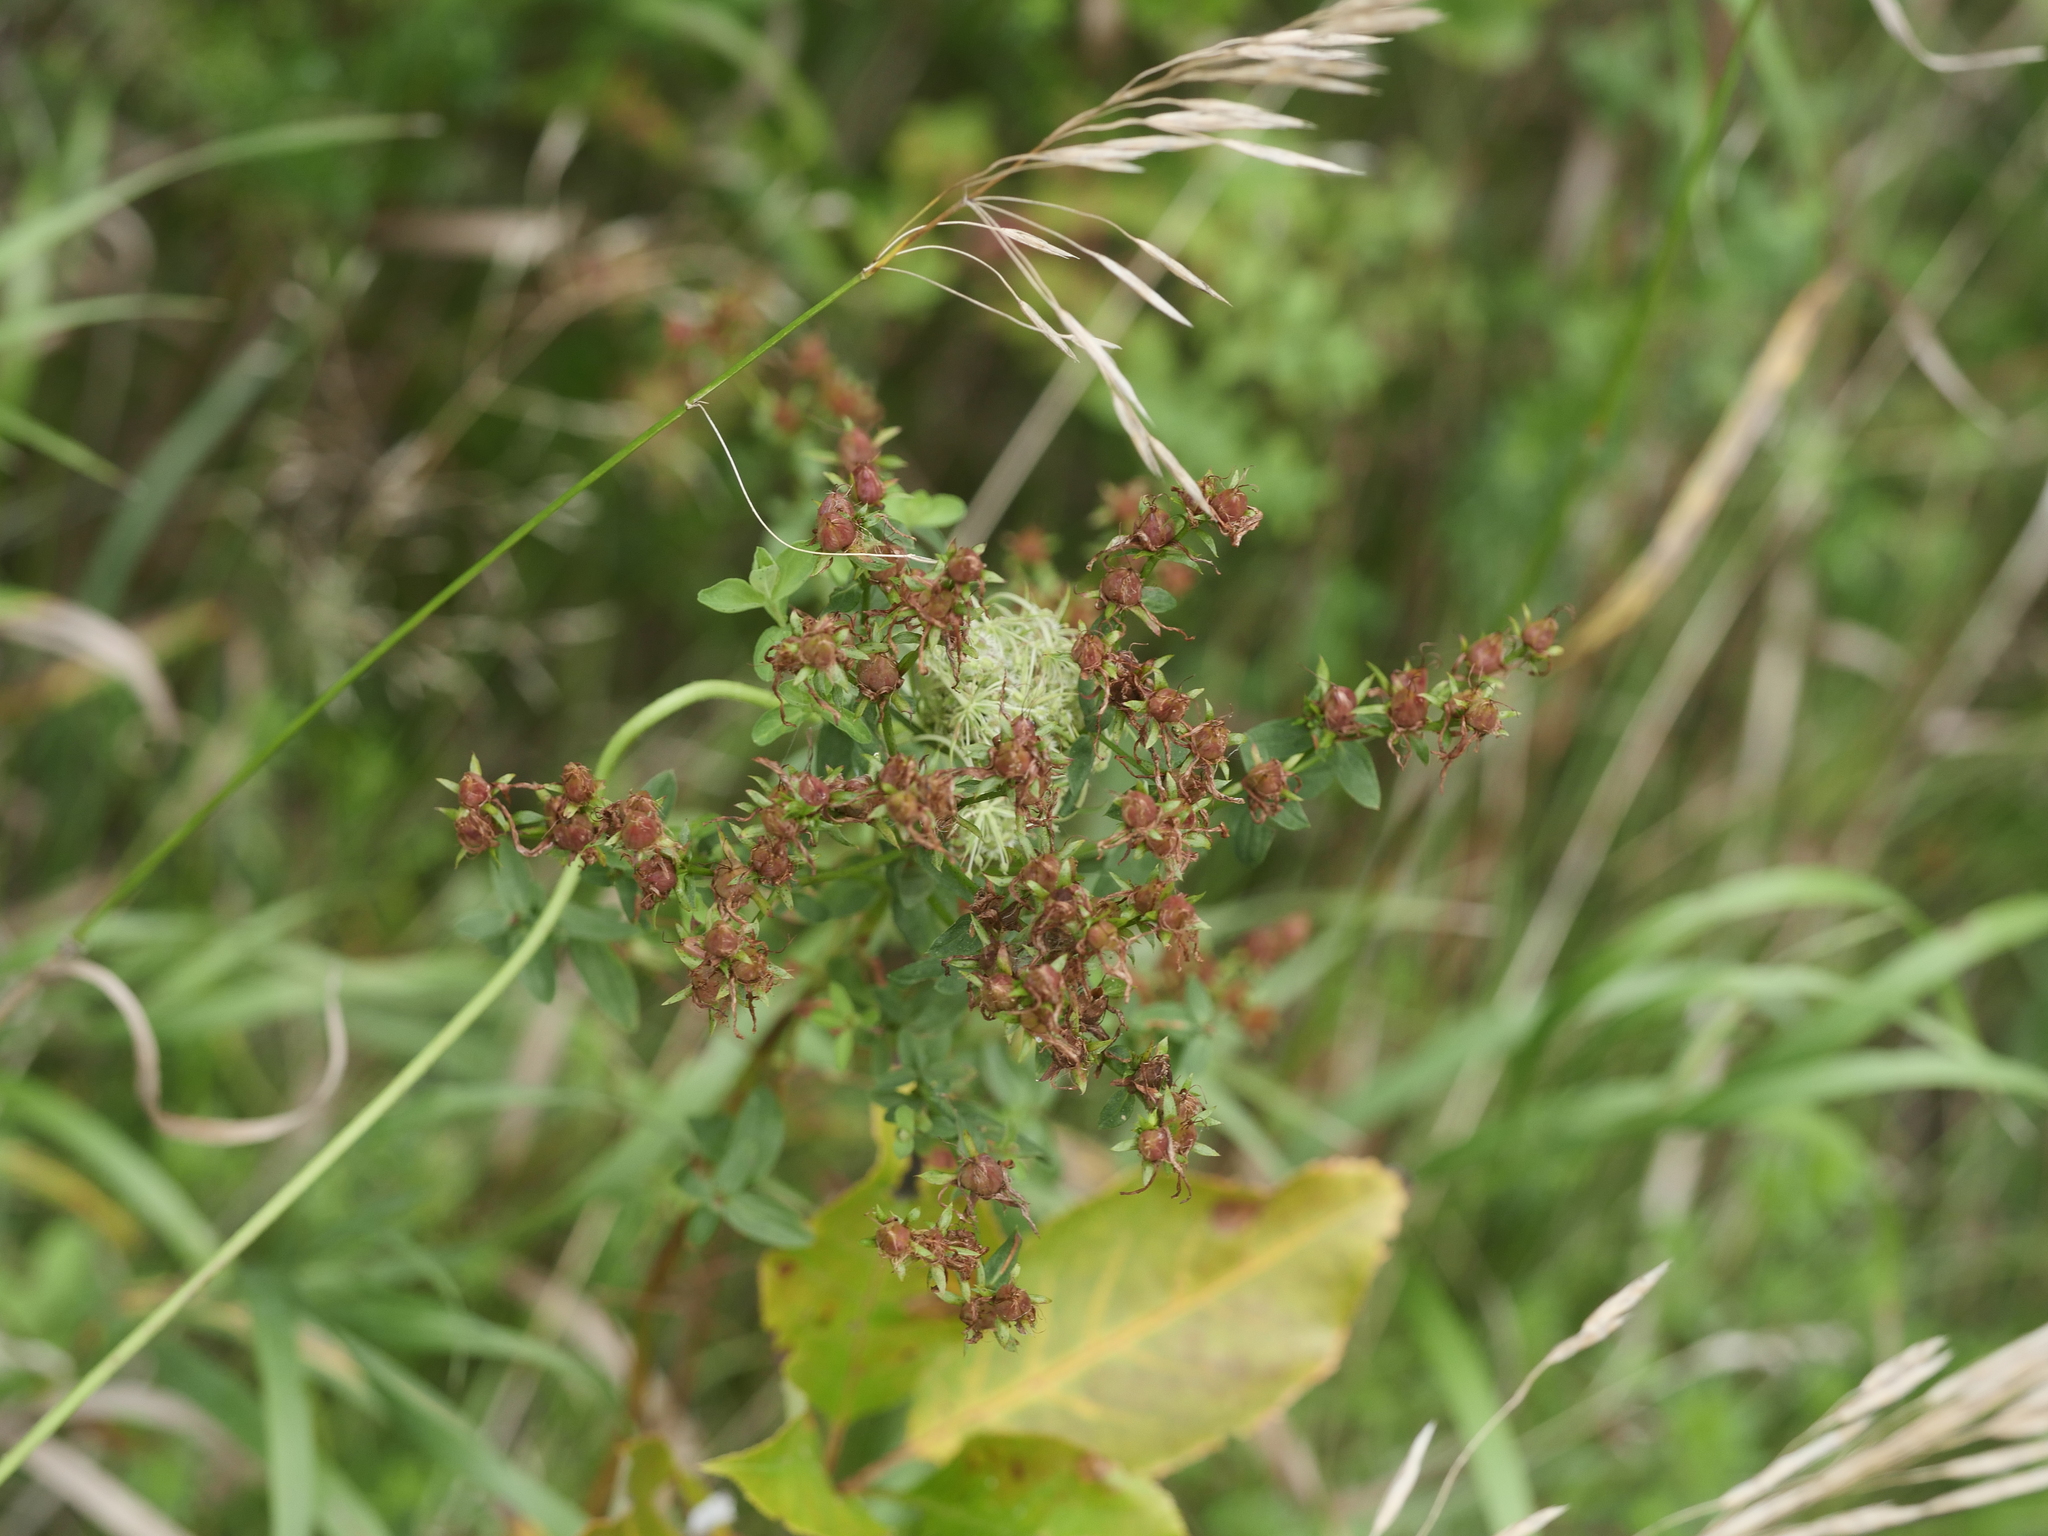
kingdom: Plantae
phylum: Tracheophyta
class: Magnoliopsida
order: Malpighiales
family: Hypericaceae
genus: Hypericum
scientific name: Hypericum perforatum
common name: Common st. johnswort
